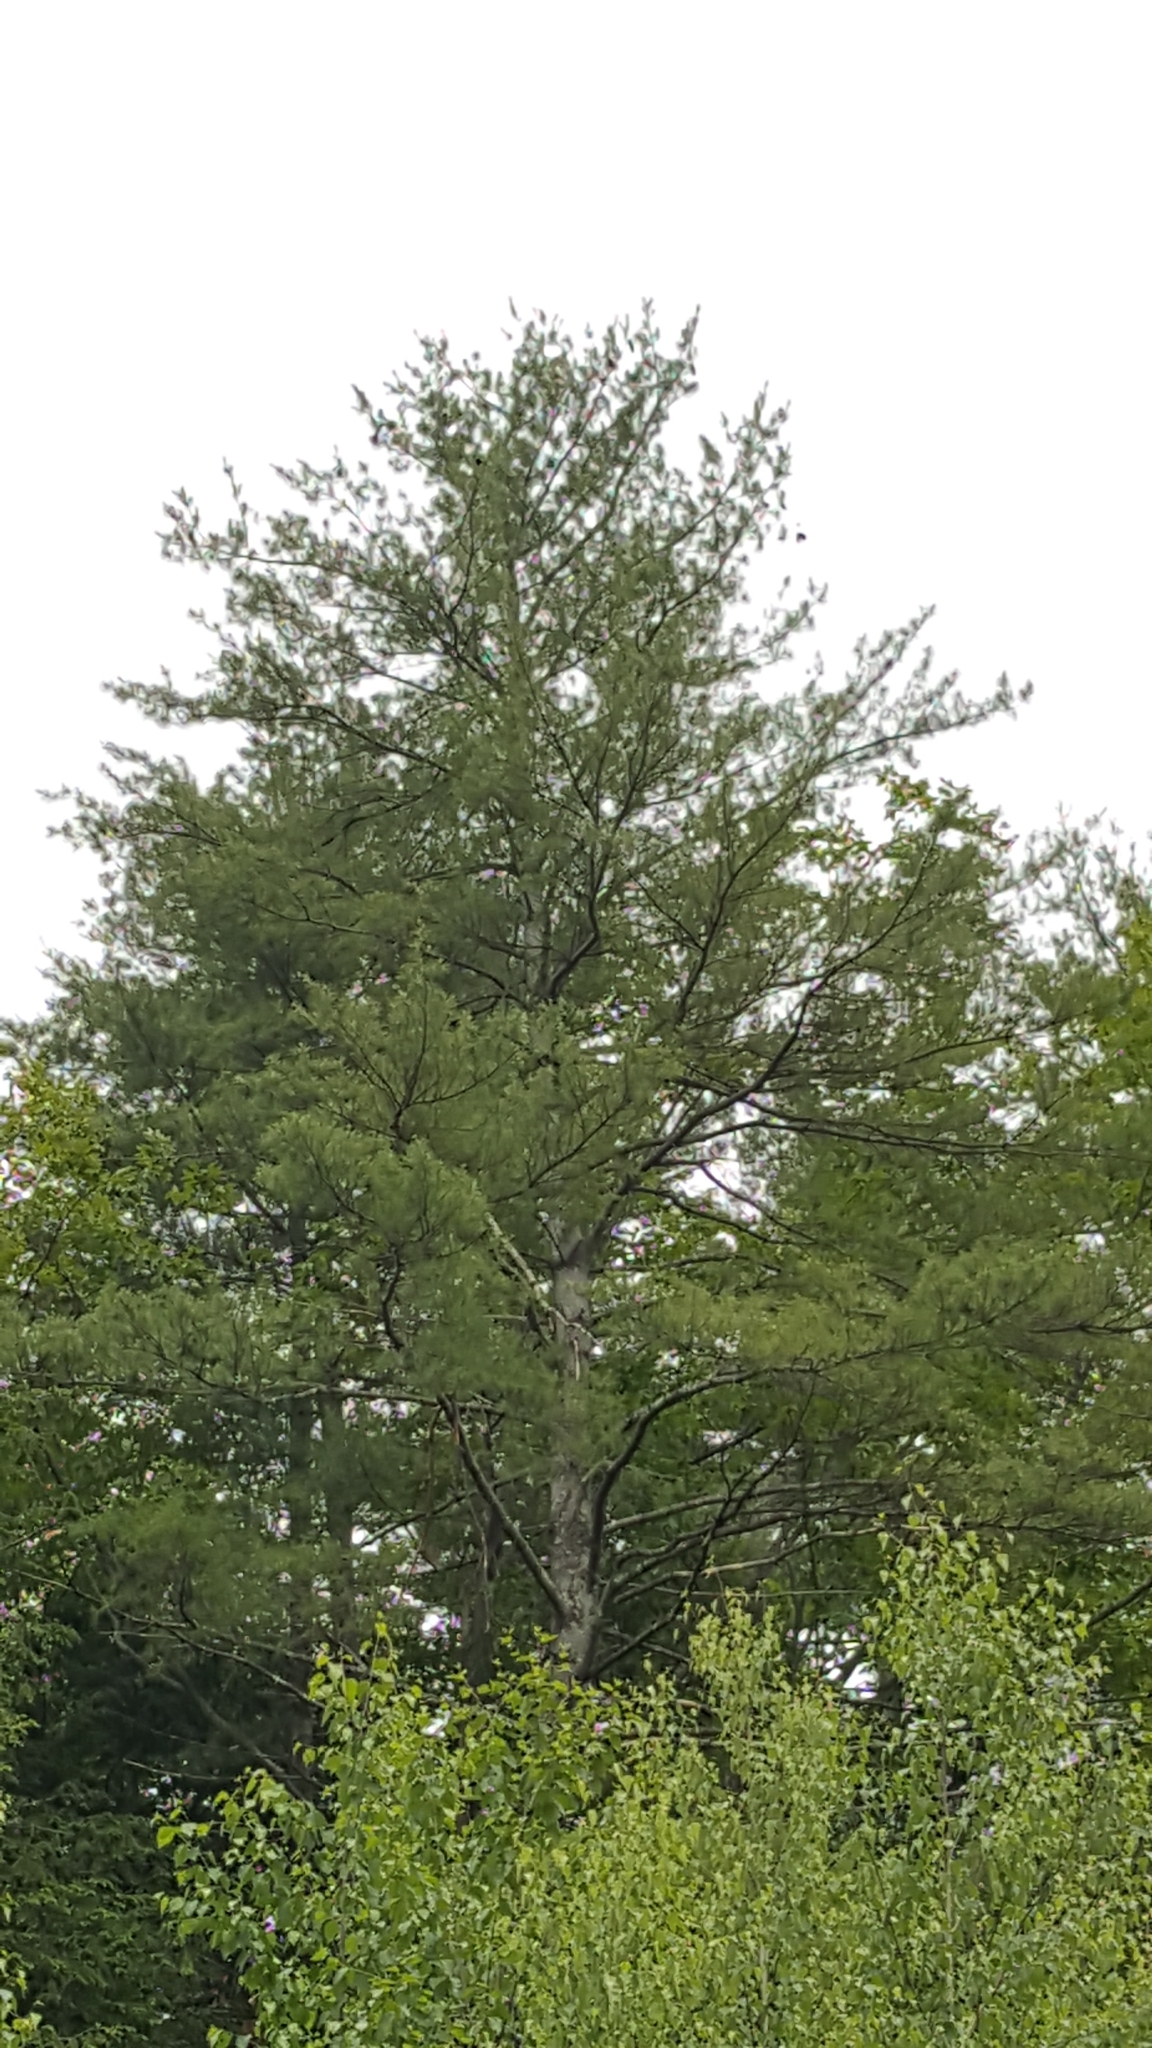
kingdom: Plantae
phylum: Tracheophyta
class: Pinopsida
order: Pinales
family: Pinaceae
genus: Pinus
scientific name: Pinus strobus
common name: Weymouth pine
